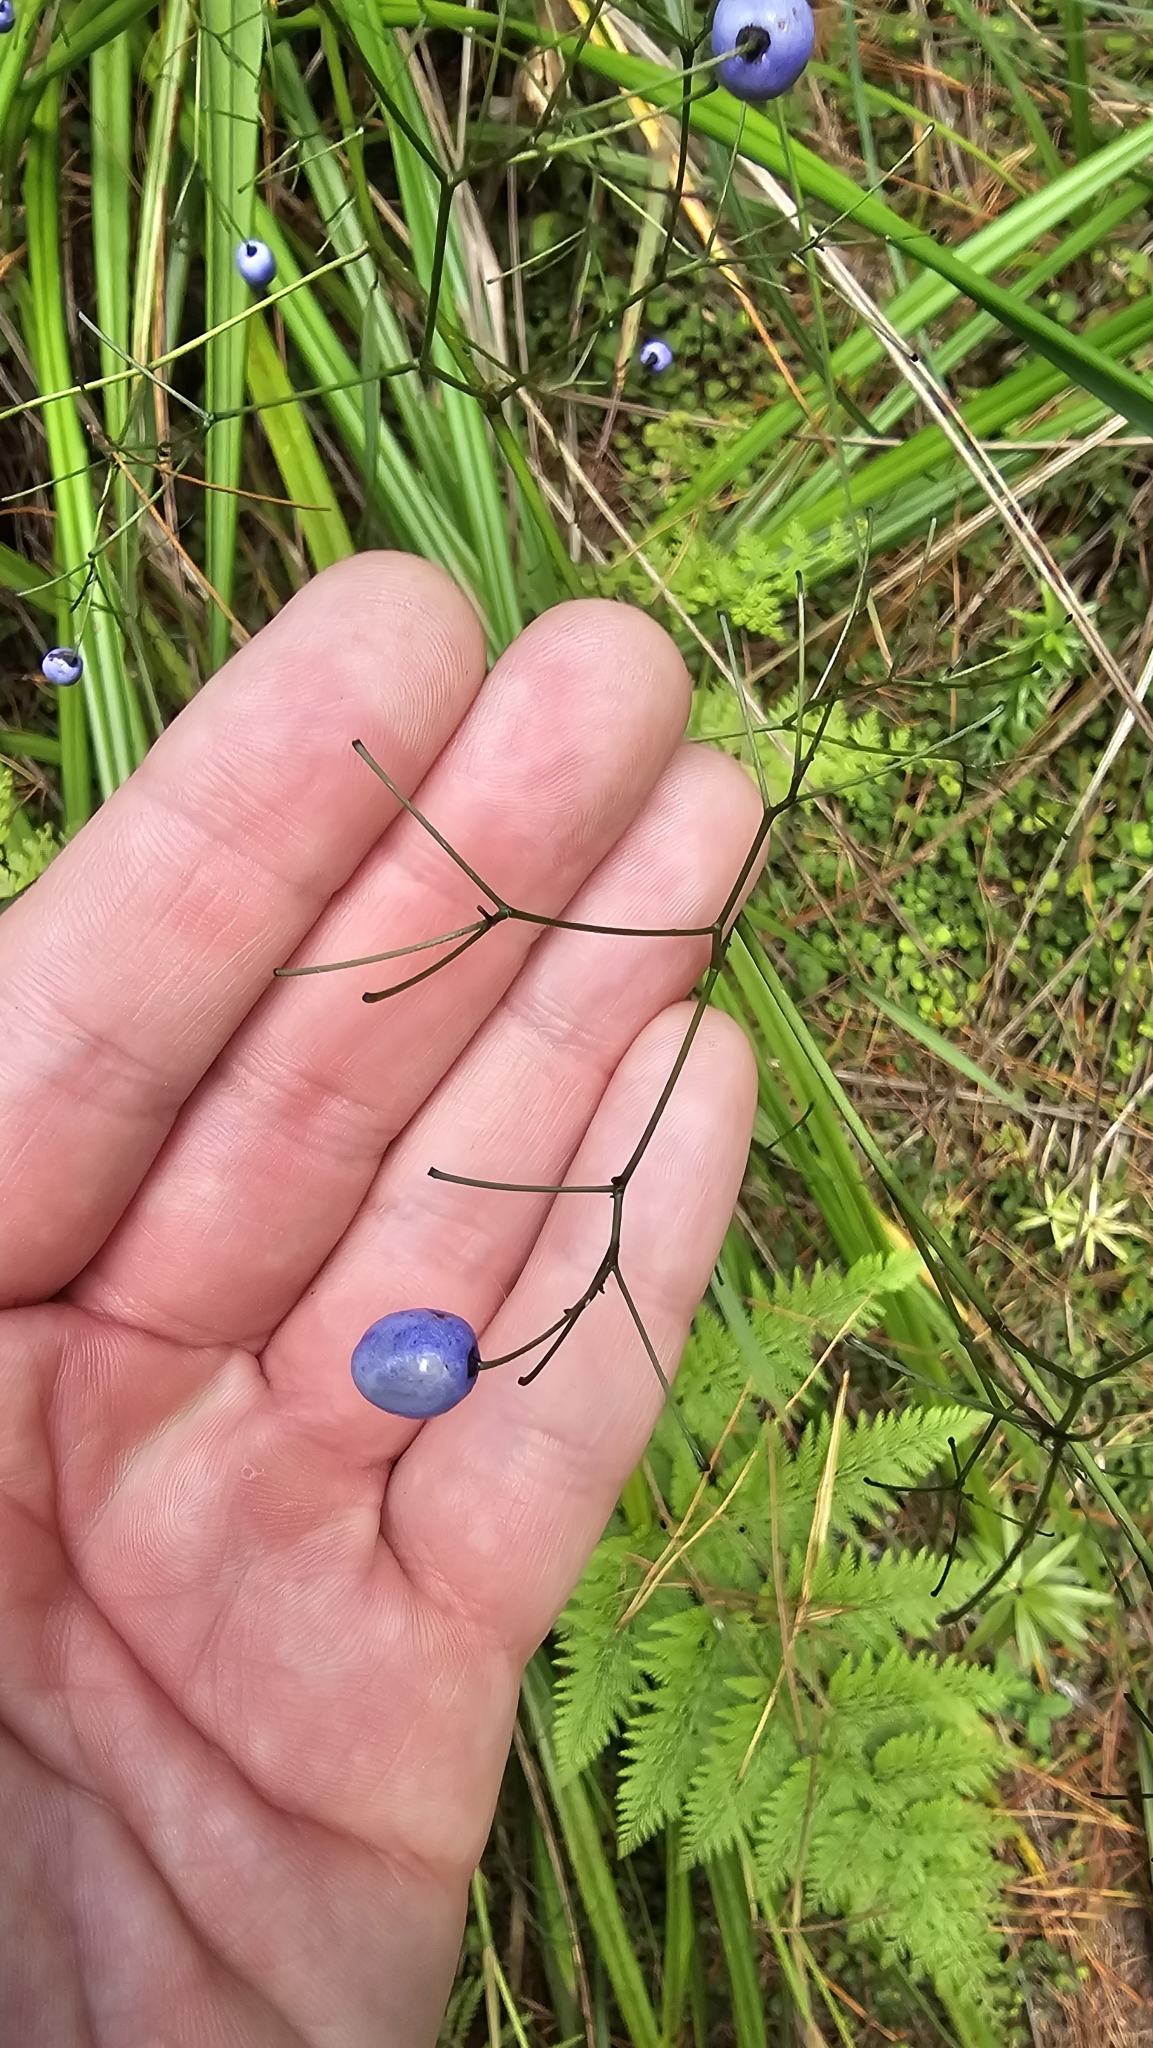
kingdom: Plantae
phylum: Tracheophyta
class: Liliopsida
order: Asparagales
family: Asphodelaceae
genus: Dianella
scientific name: Dianella nigra
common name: New zealand-blueberry
